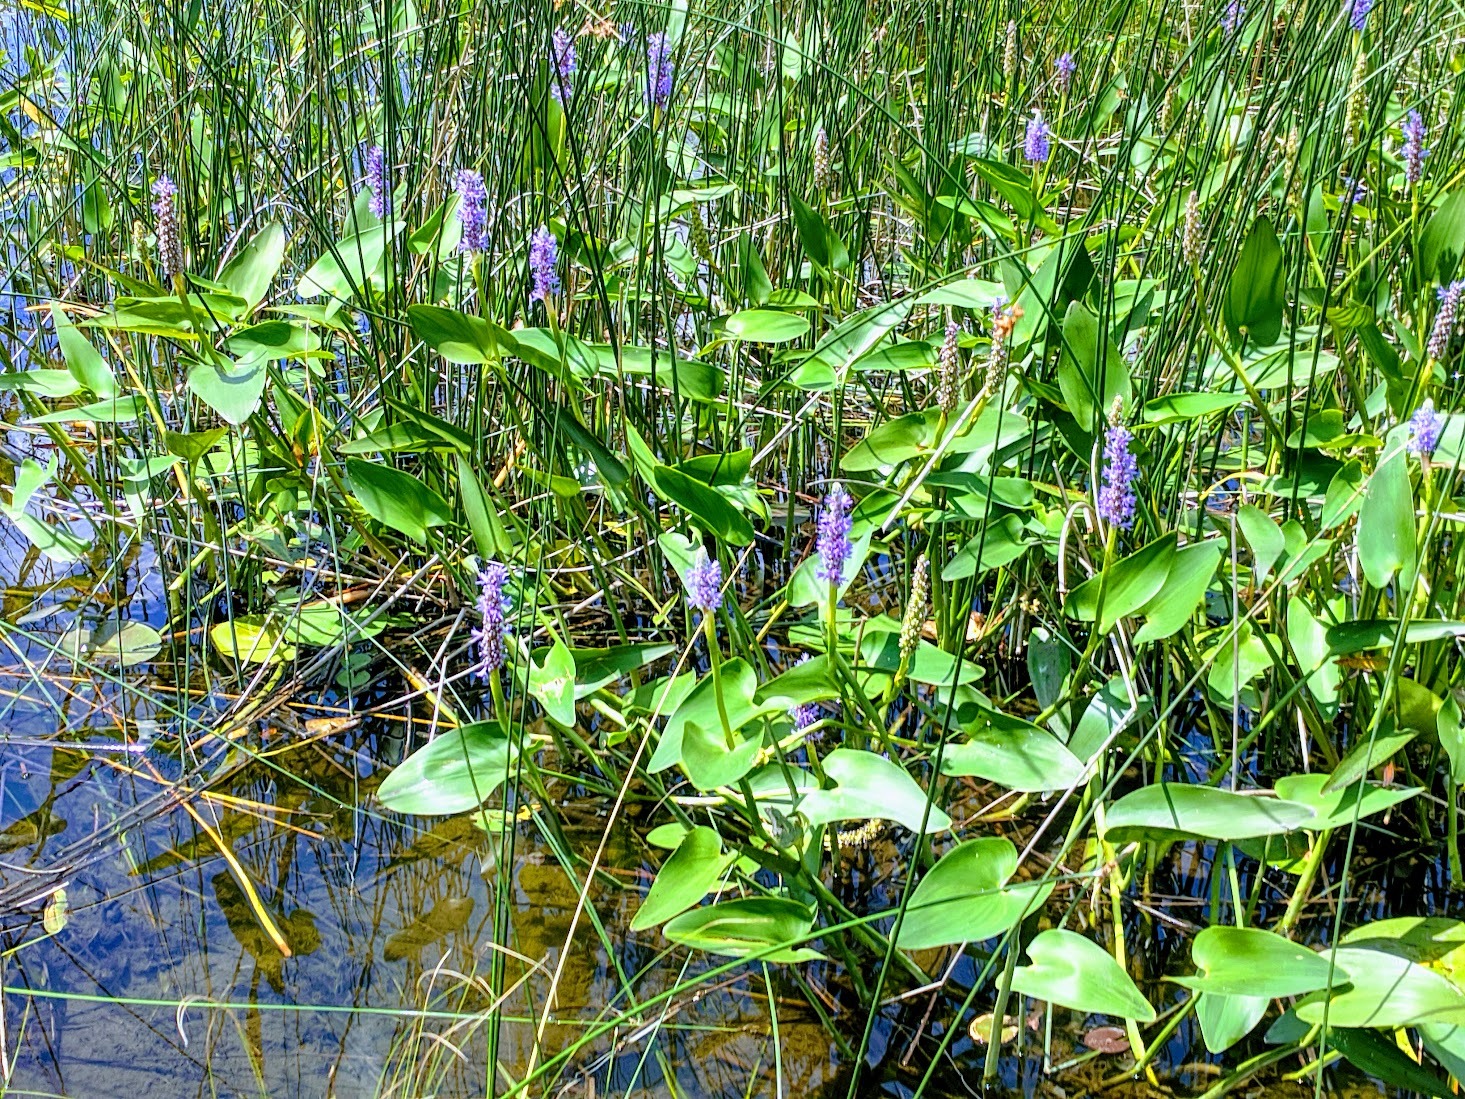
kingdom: Plantae
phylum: Tracheophyta
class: Liliopsida
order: Commelinales
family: Pontederiaceae
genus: Pontederia
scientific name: Pontederia cordata
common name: Pickerelweed
